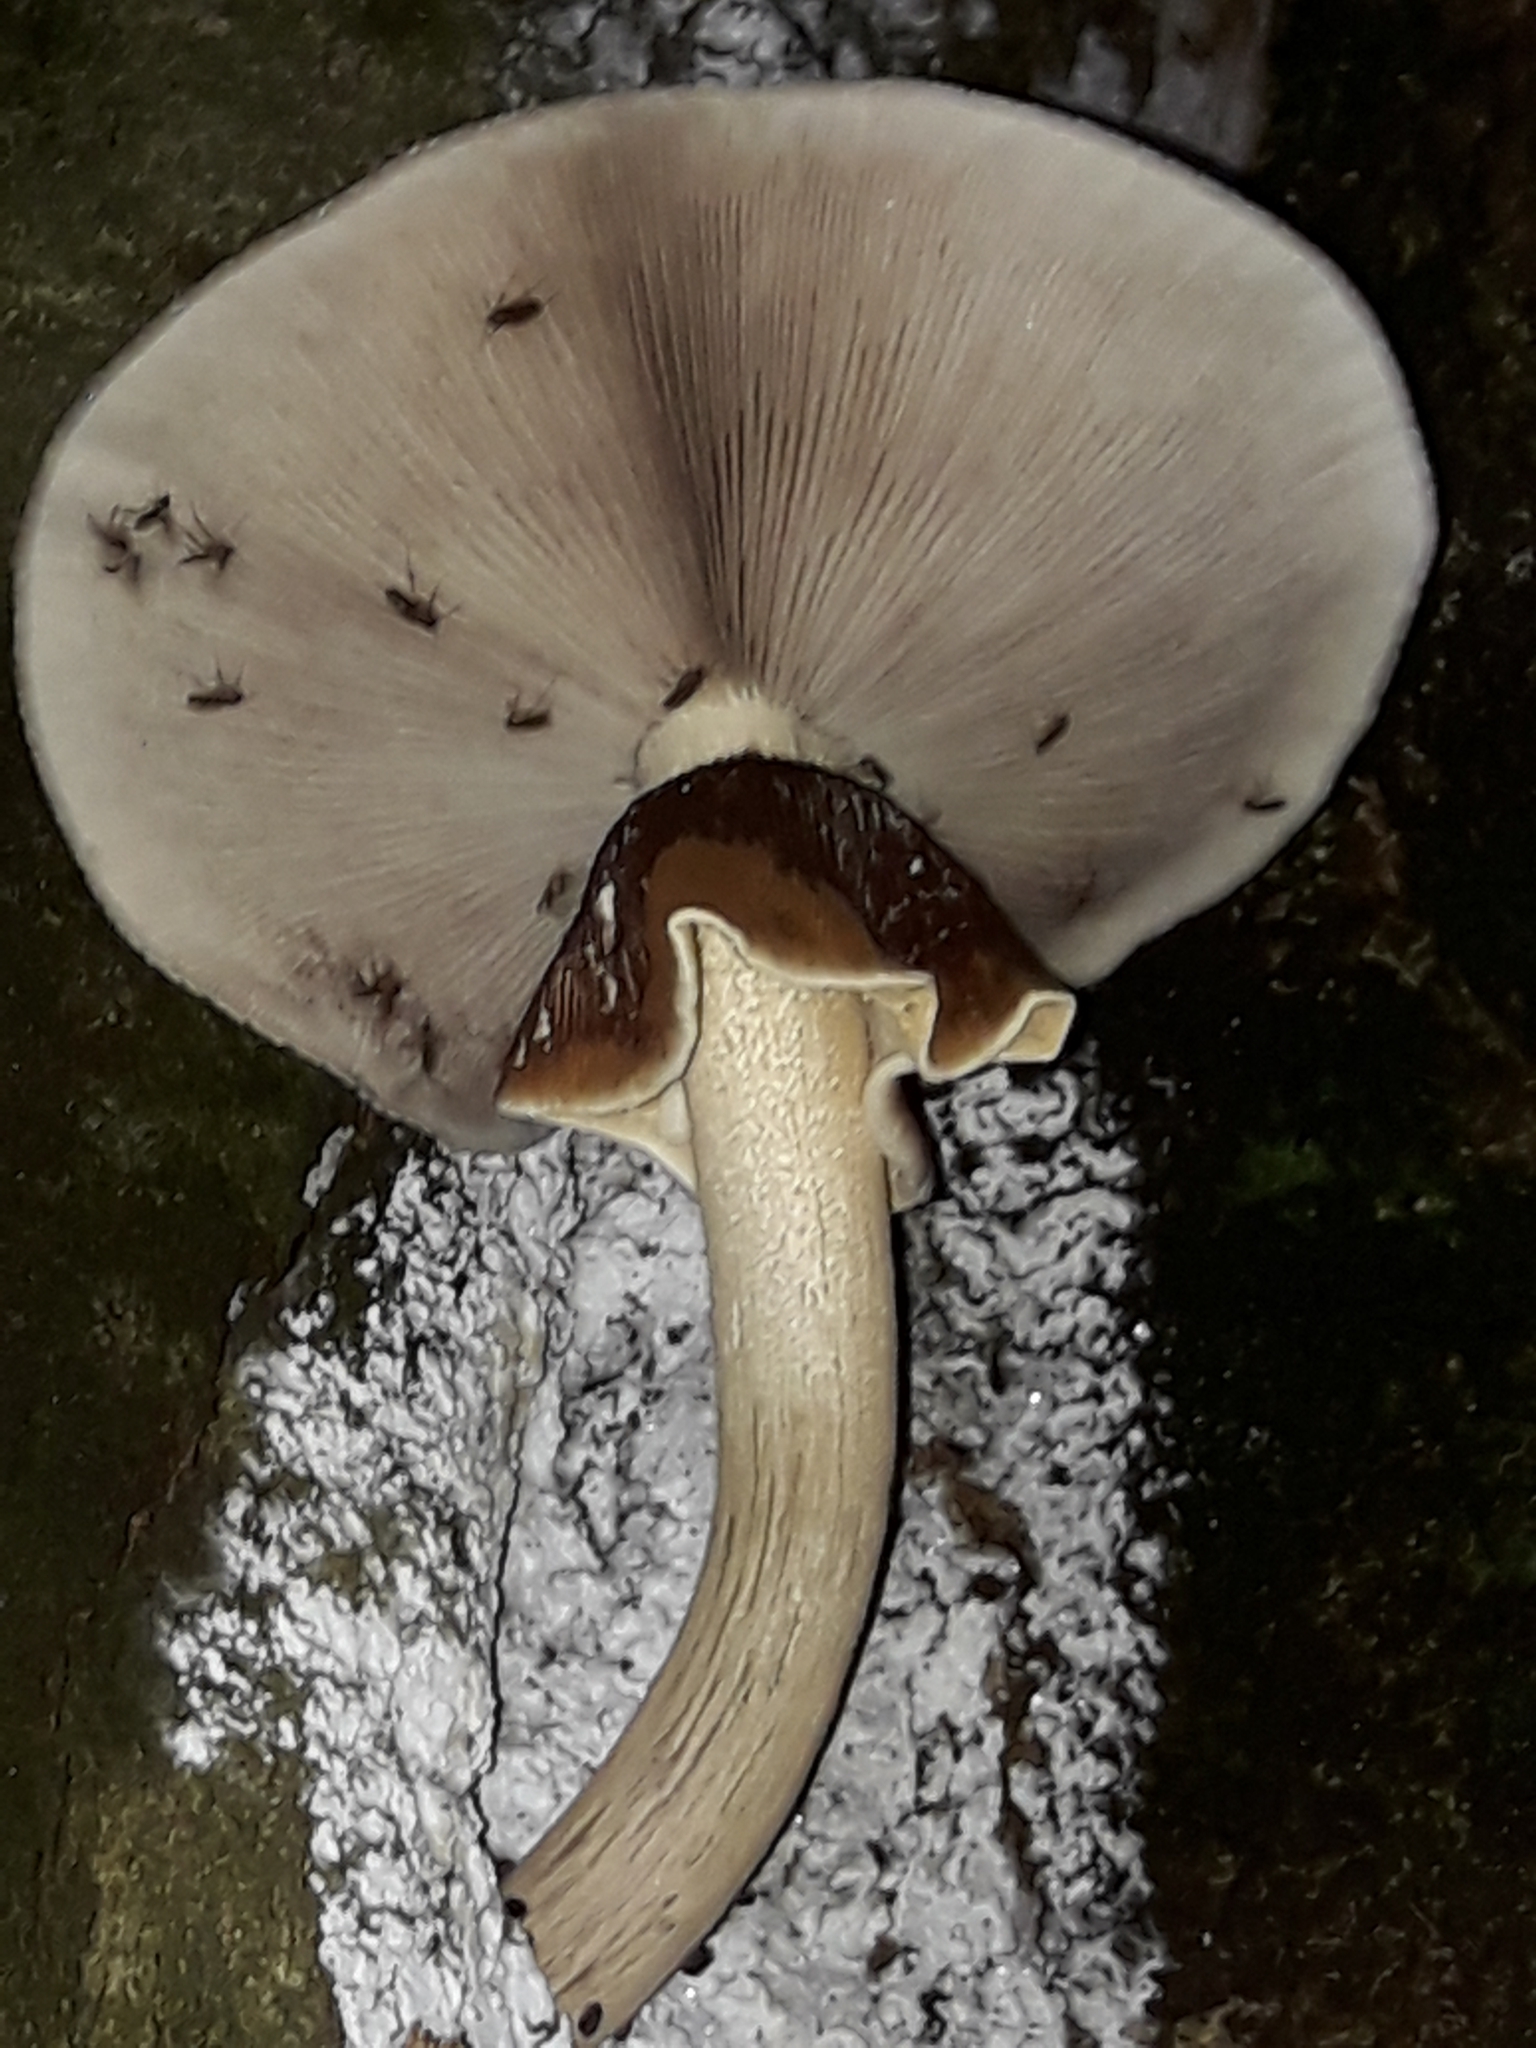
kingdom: Fungi
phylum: Basidiomycota
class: Agaricomycetes
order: Agaricales
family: Tubariaceae
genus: Cyclocybe
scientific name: Cyclocybe parasitica
